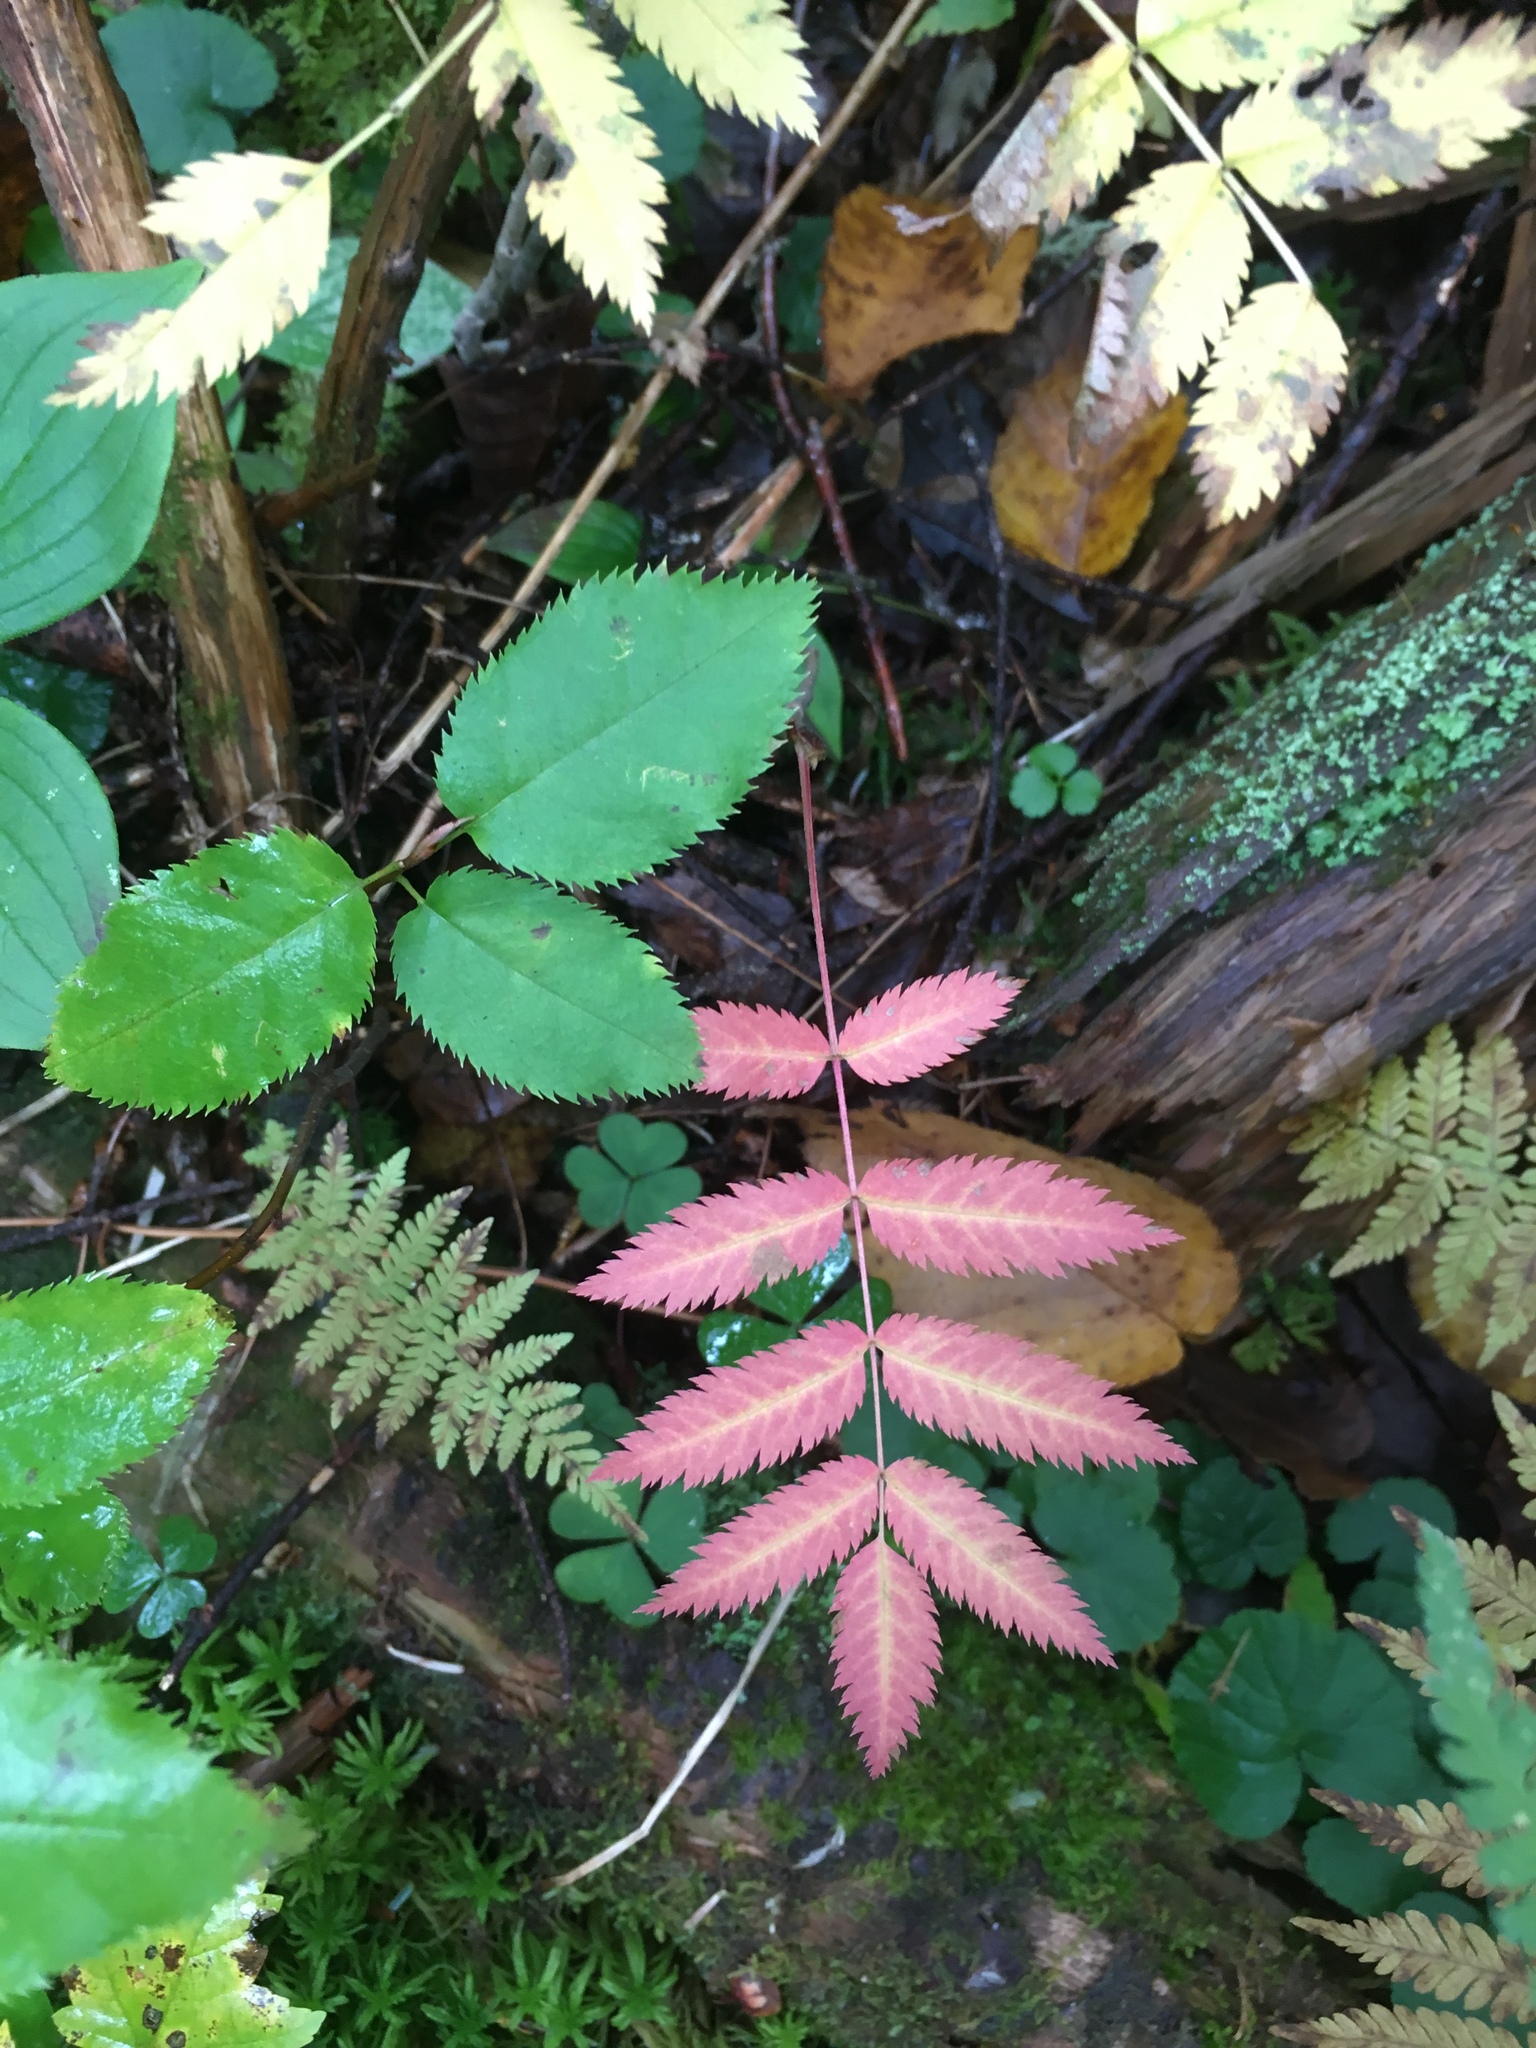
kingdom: Plantae
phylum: Tracheophyta
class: Magnoliopsida
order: Rosales
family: Rosaceae
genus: Sorbus
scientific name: Sorbus americana
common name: American mountain-ash
